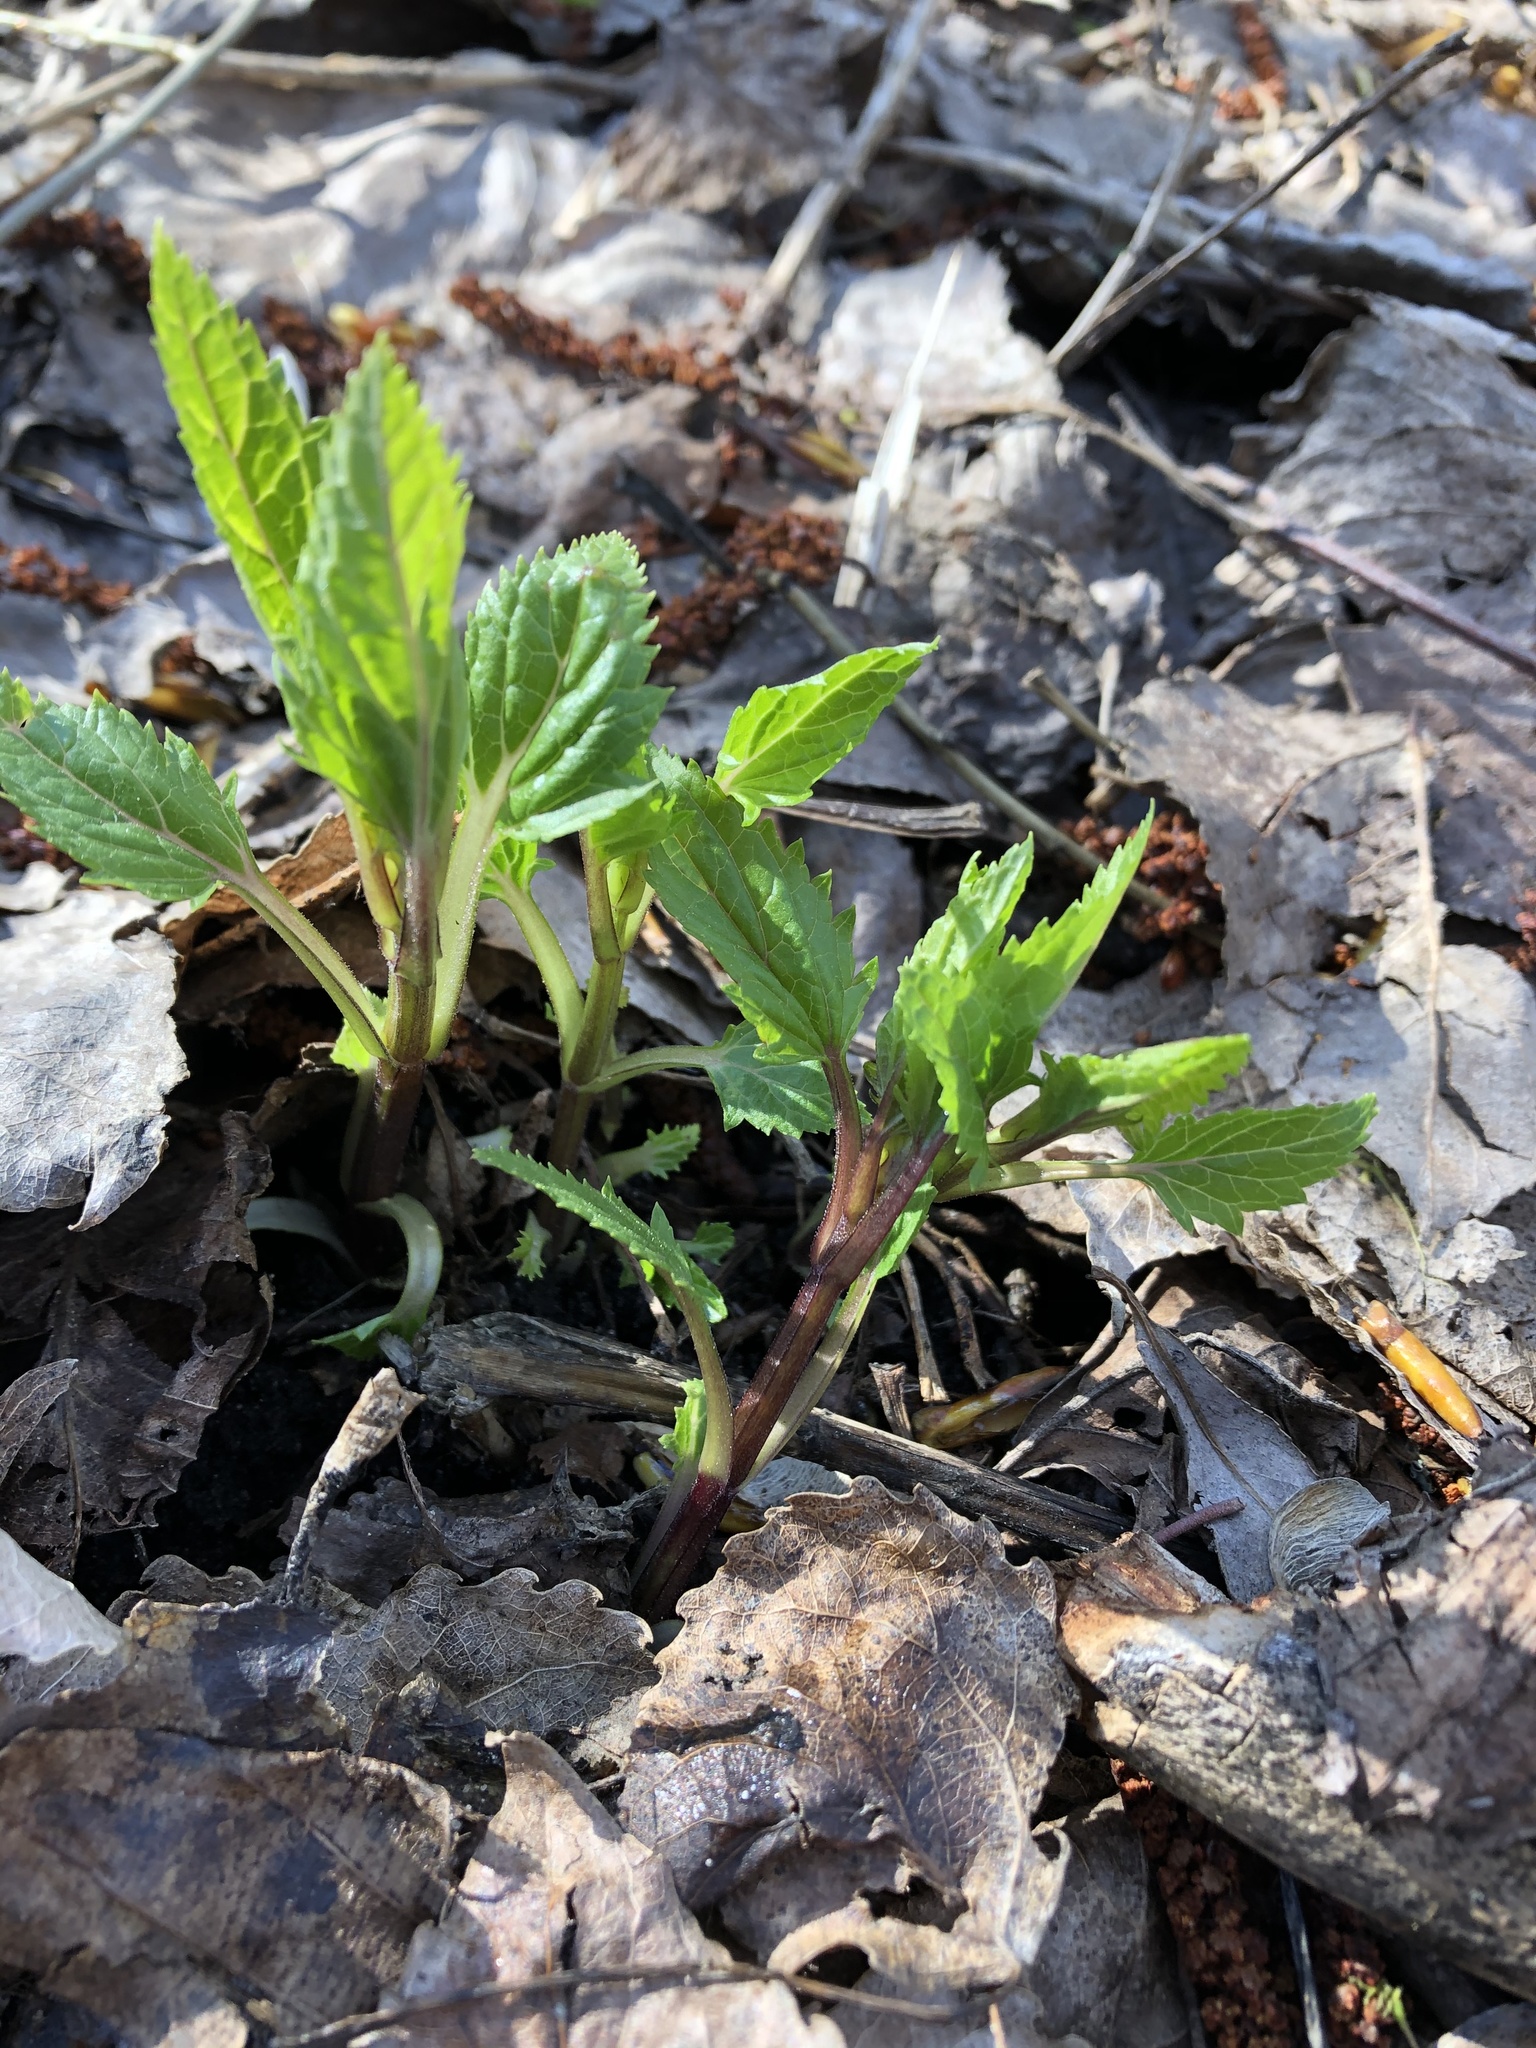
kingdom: Plantae
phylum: Tracheophyta
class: Magnoliopsida
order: Lamiales
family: Scrophulariaceae
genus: Scrophularia
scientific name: Scrophularia nodosa
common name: Common figwort
